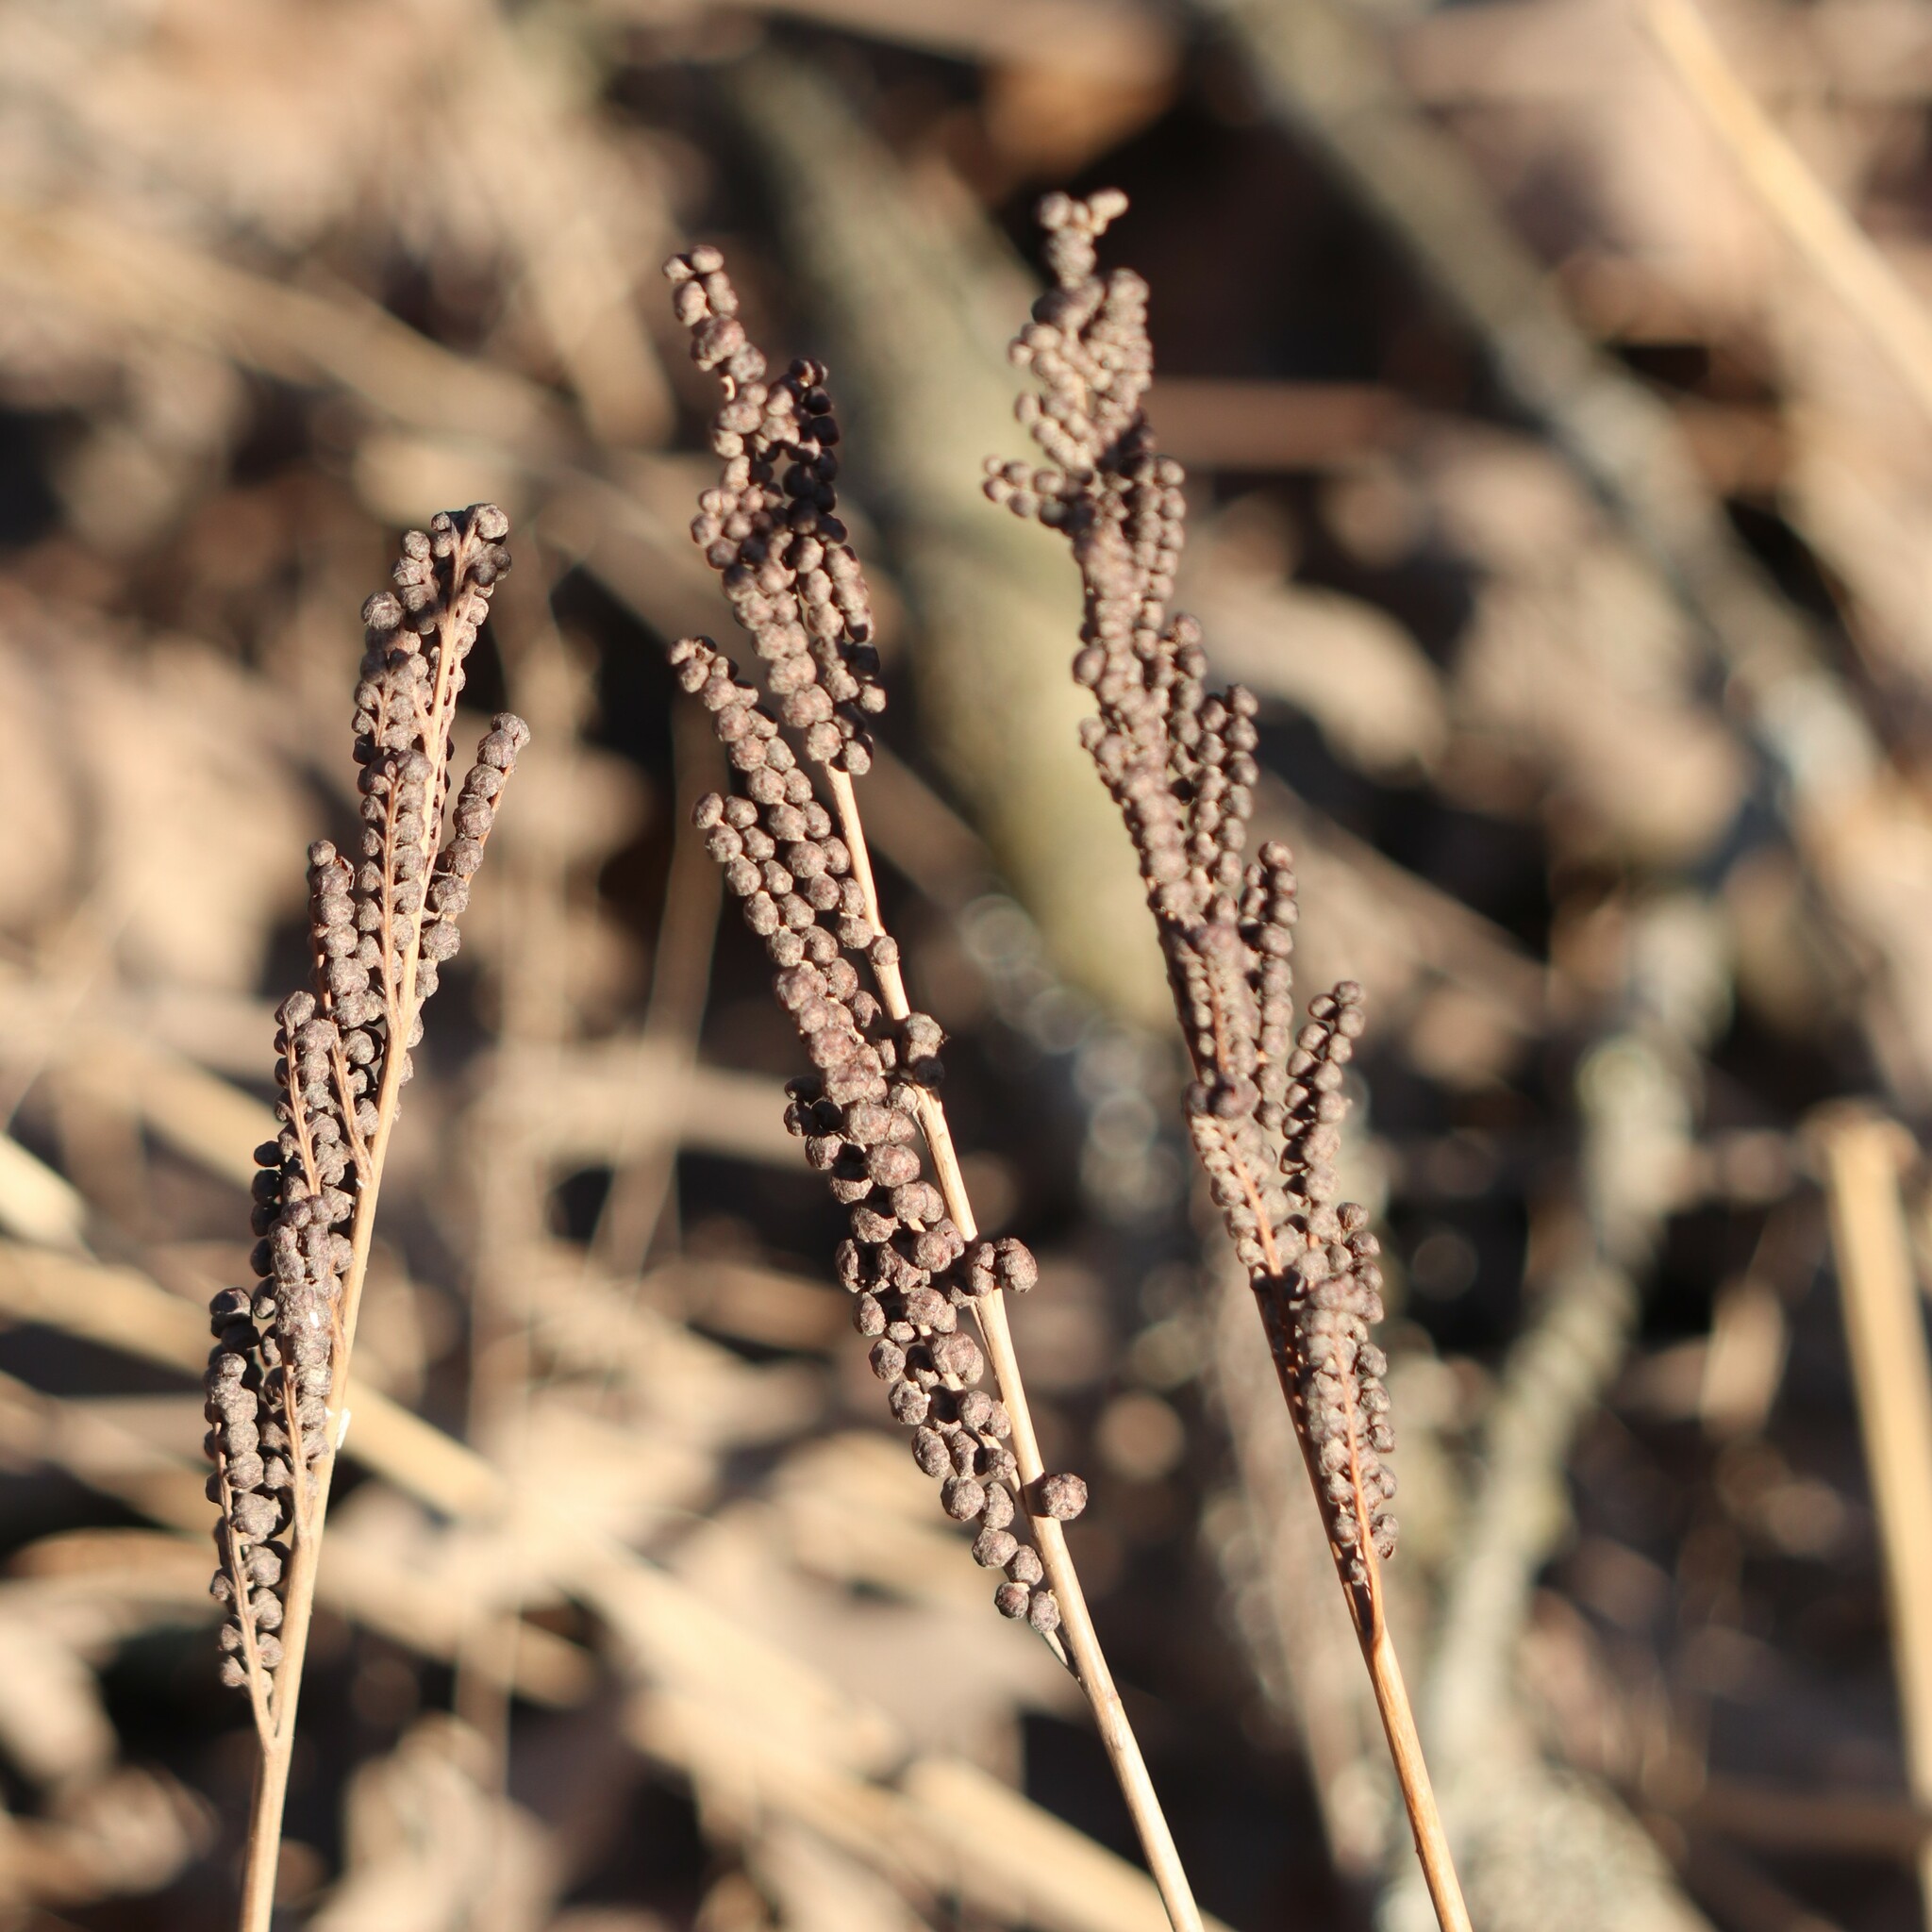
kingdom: Plantae
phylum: Tracheophyta
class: Polypodiopsida
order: Polypodiales
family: Onocleaceae
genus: Onoclea
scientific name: Onoclea sensibilis
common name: Sensitive fern
